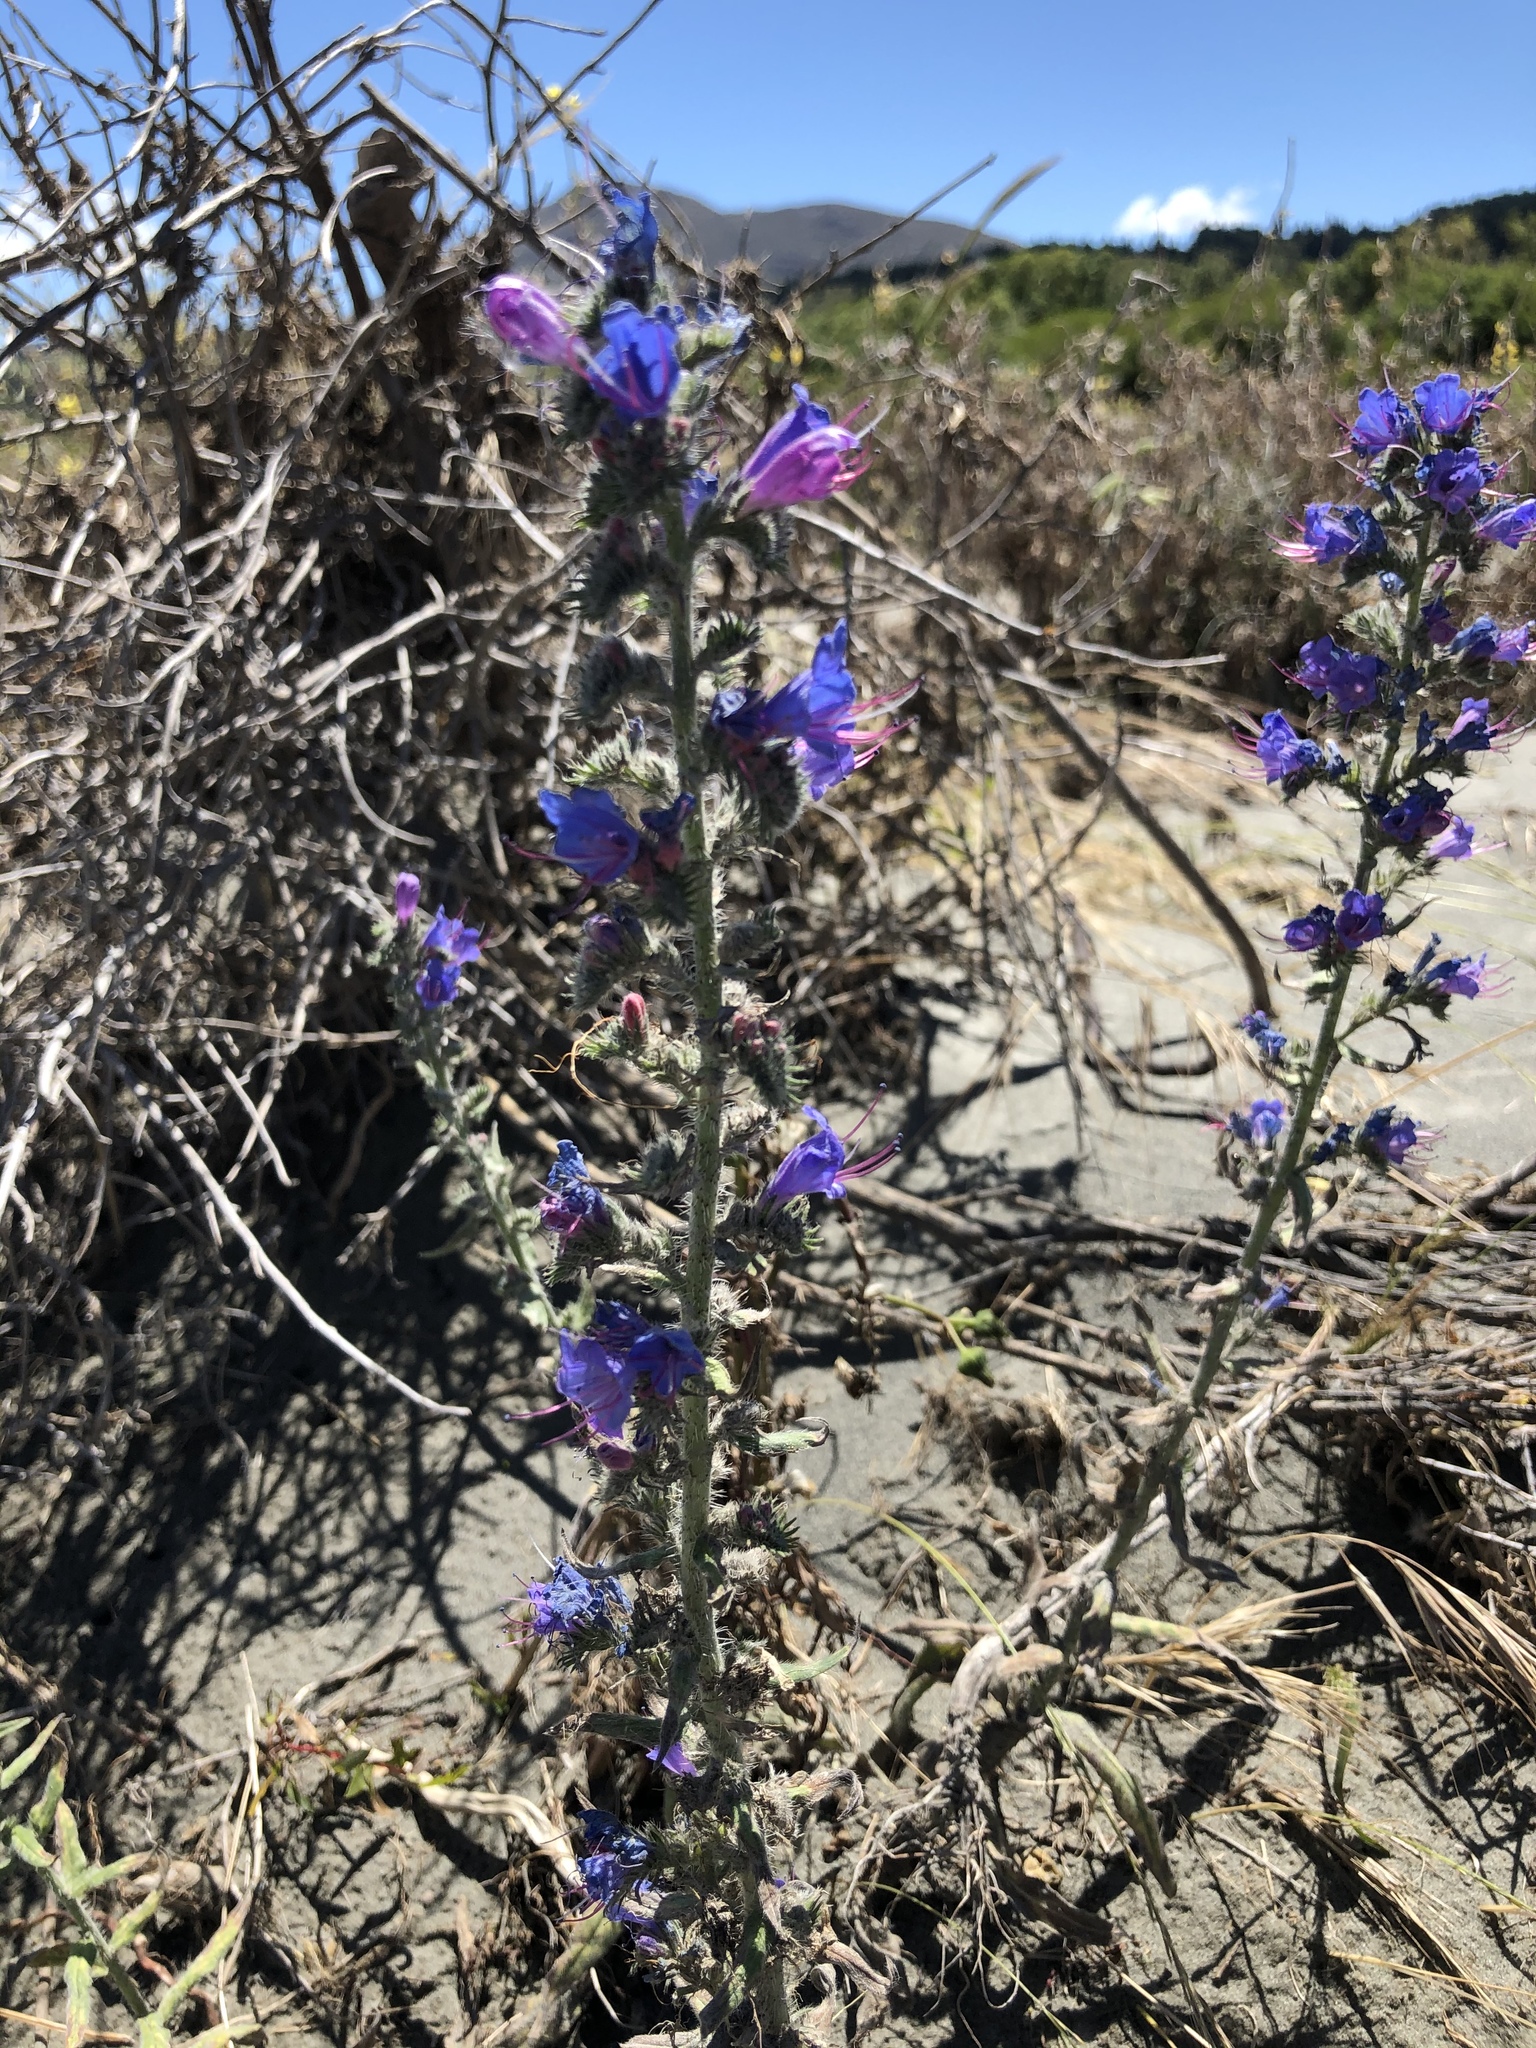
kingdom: Plantae
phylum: Tracheophyta
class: Magnoliopsida
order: Boraginales
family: Boraginaceae
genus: Echium
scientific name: Echium vulgare
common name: Common viper's bugloss
